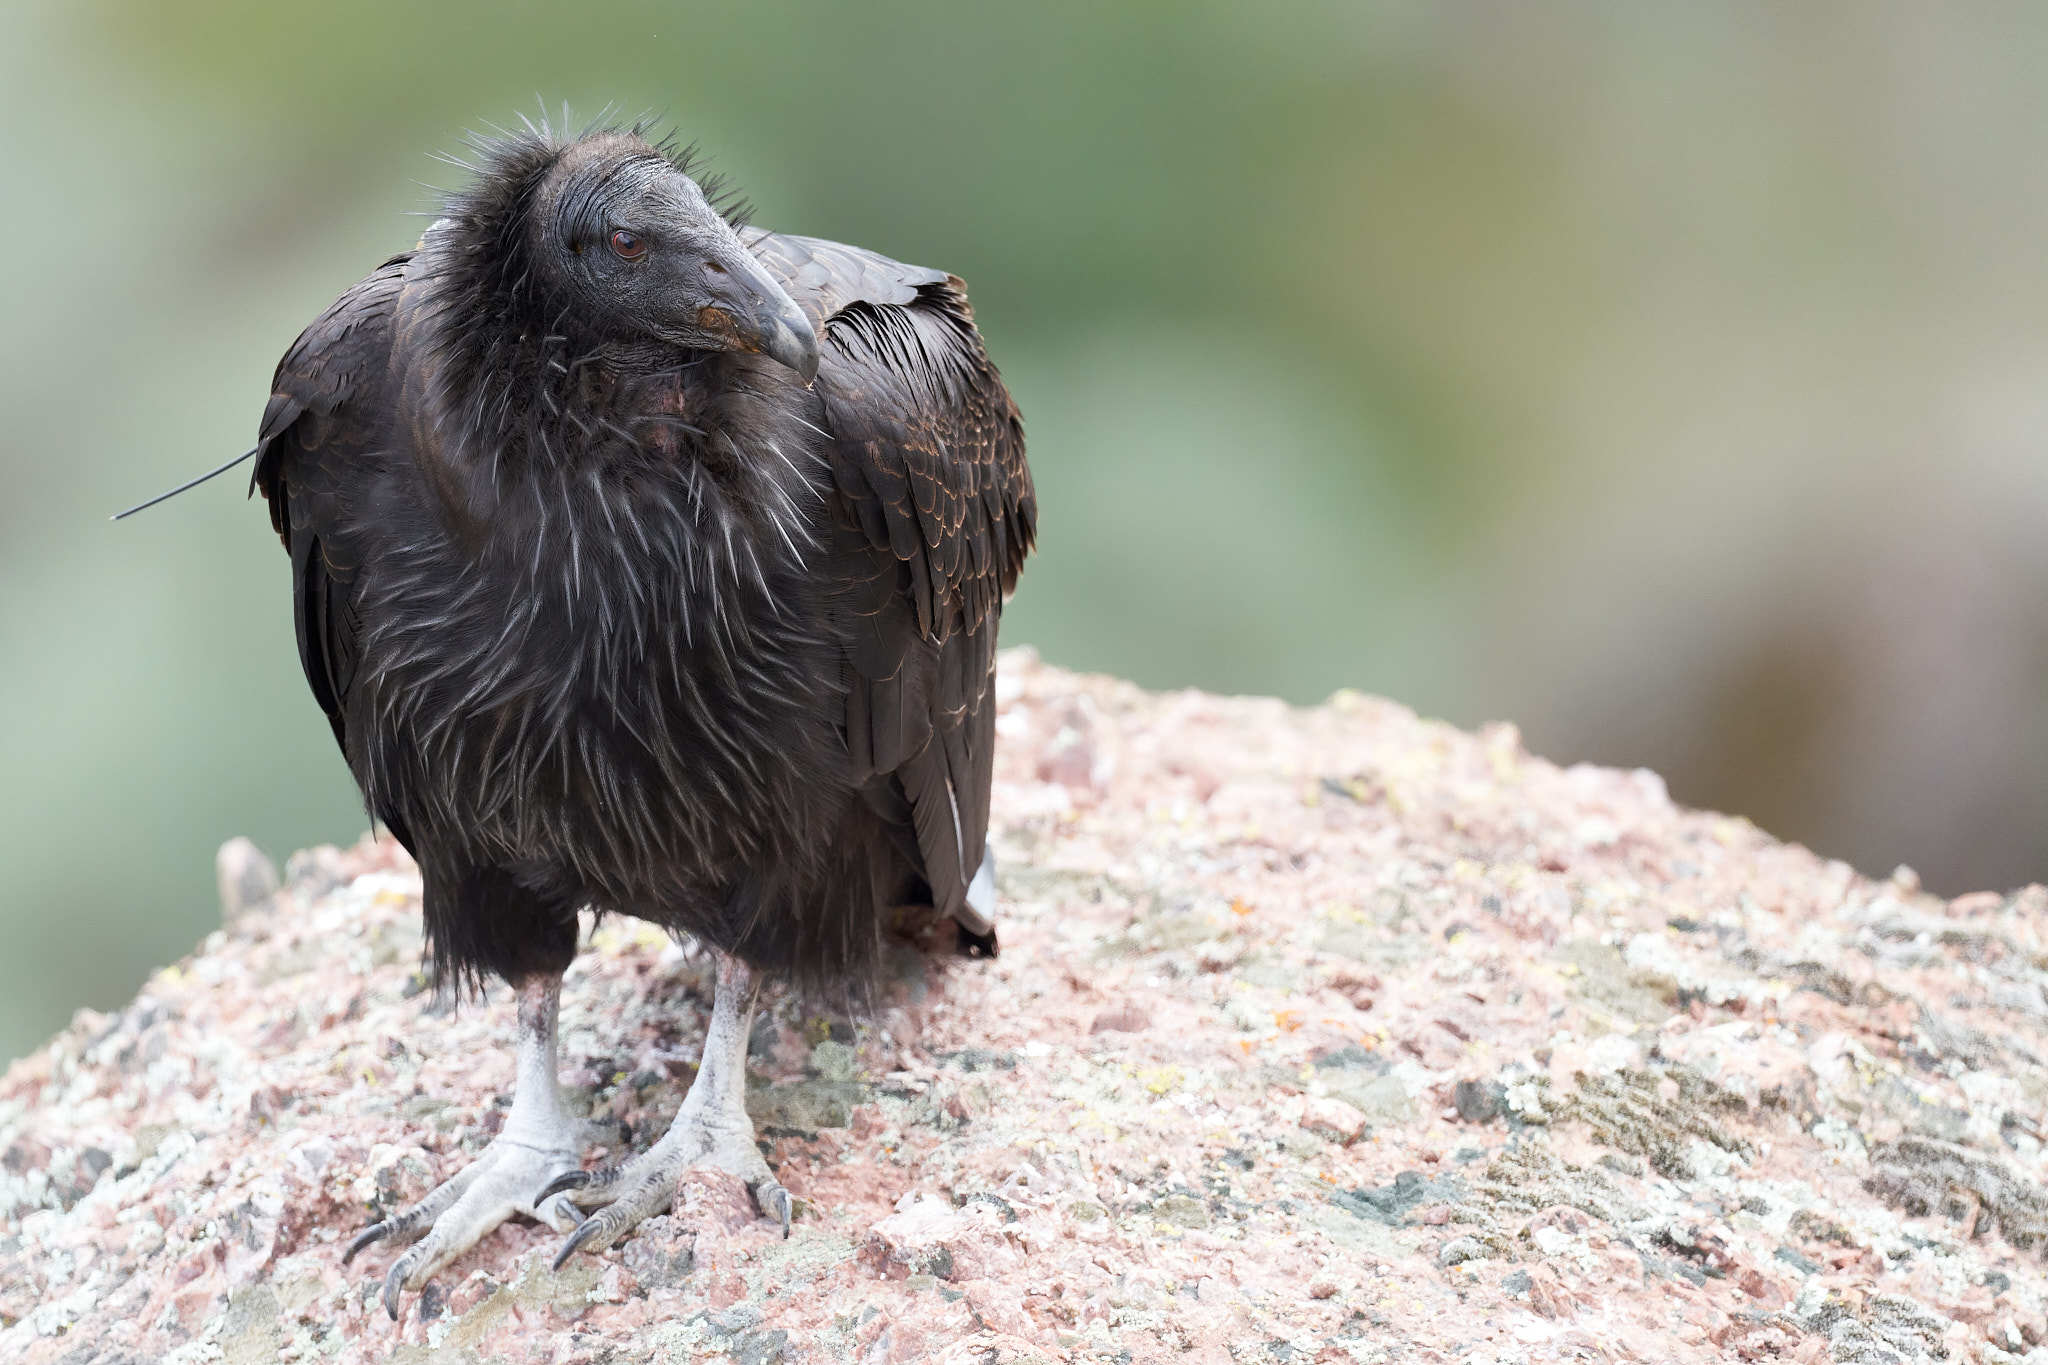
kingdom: Animalia
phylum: Chordata
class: Aves
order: Accipitriformes
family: Cathartidae
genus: Gymnogyps
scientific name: Gymnogyps californianus
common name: California condor
